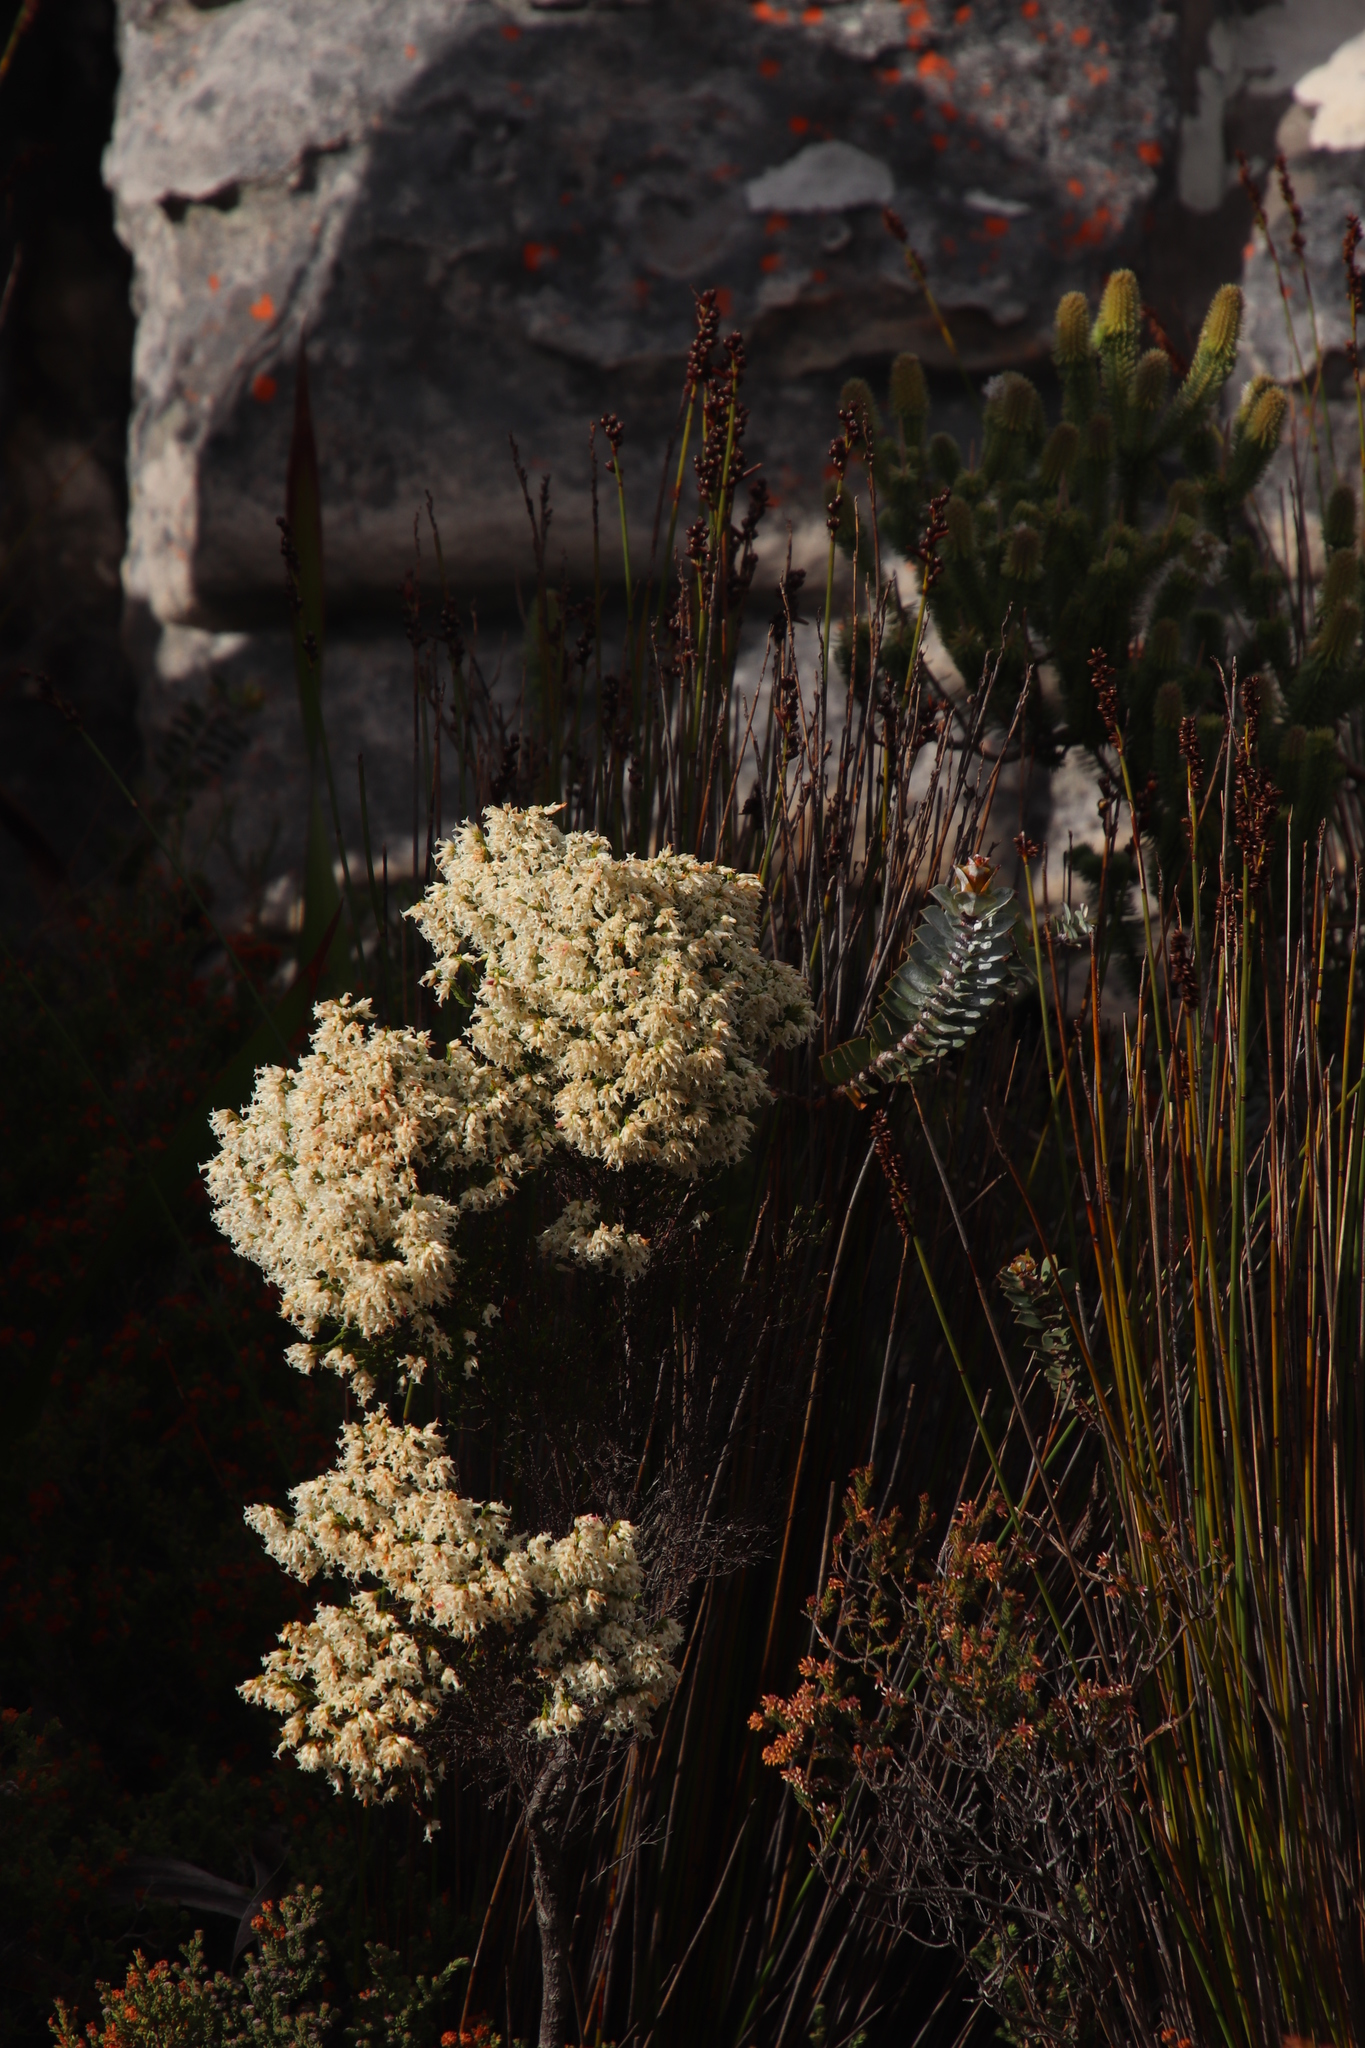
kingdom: Plantae
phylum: Tracheophyta
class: Magnoliopsida
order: Ericales
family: Ericaceae
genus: Erica
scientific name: Erica lutea
